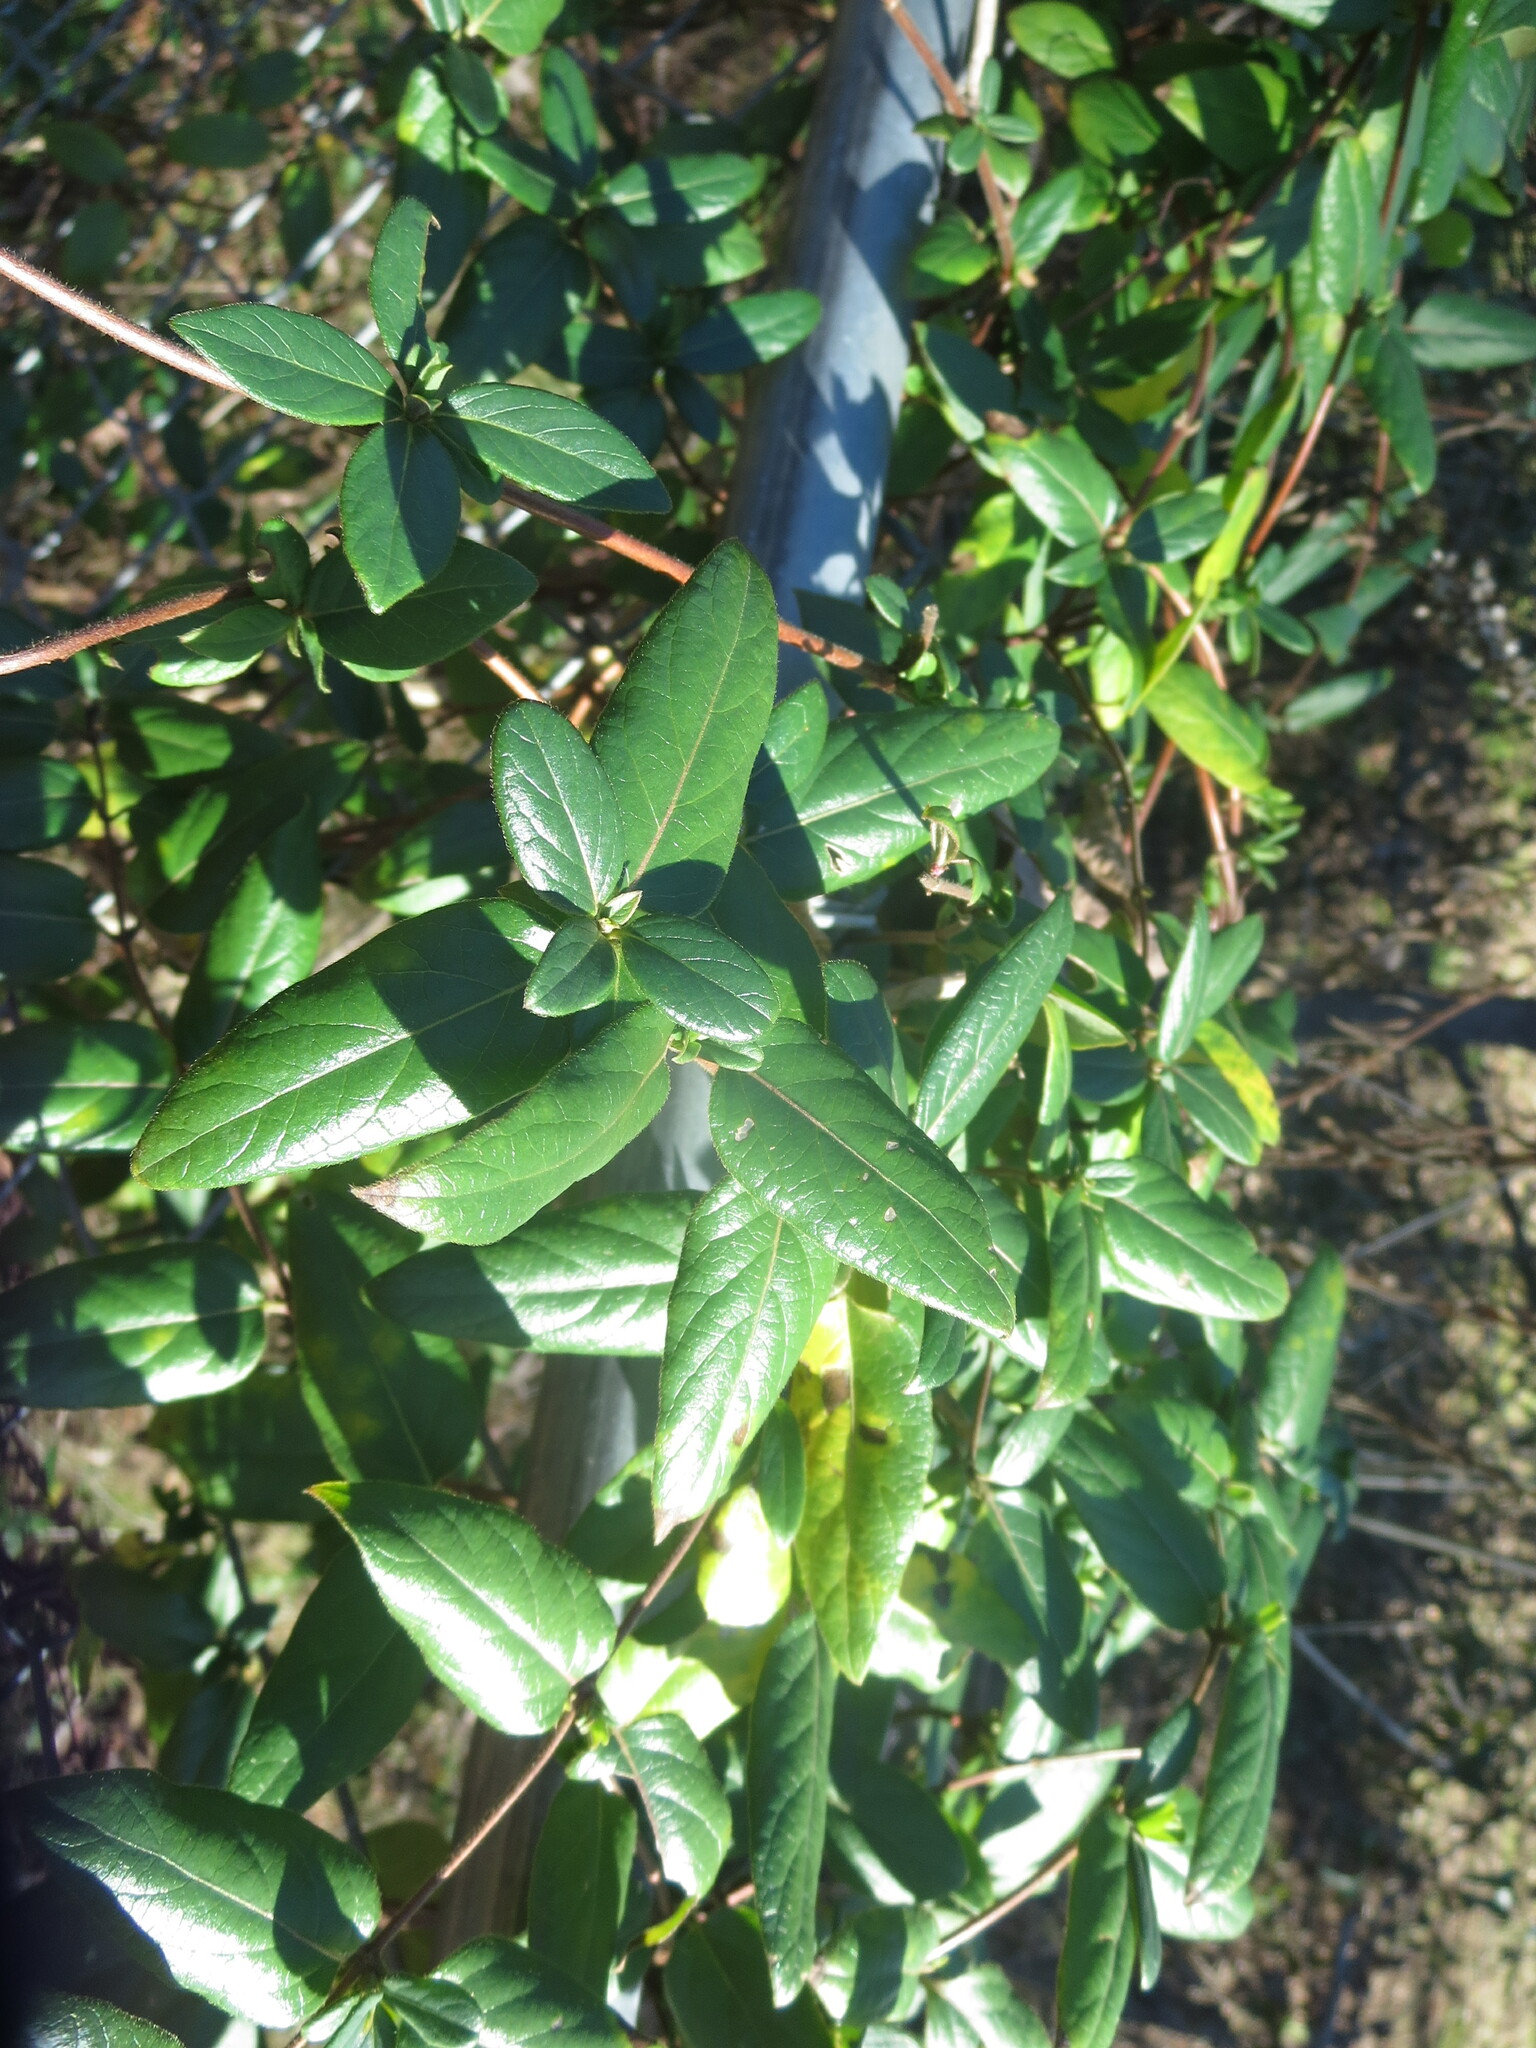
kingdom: Plantae
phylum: Tracheophyta
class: Magnoliopsida
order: Dipsacales
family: Caprifoliaceae
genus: Lonicera
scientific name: Lonicera japonica
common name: Japanese honeysuckle
